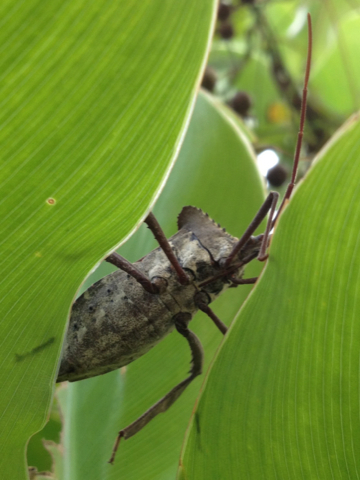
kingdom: Animalia
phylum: Arthropoda
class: Insecta
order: Hemiptera
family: Coreidae
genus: Acanthocephala
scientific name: Acanthocephala declivis
